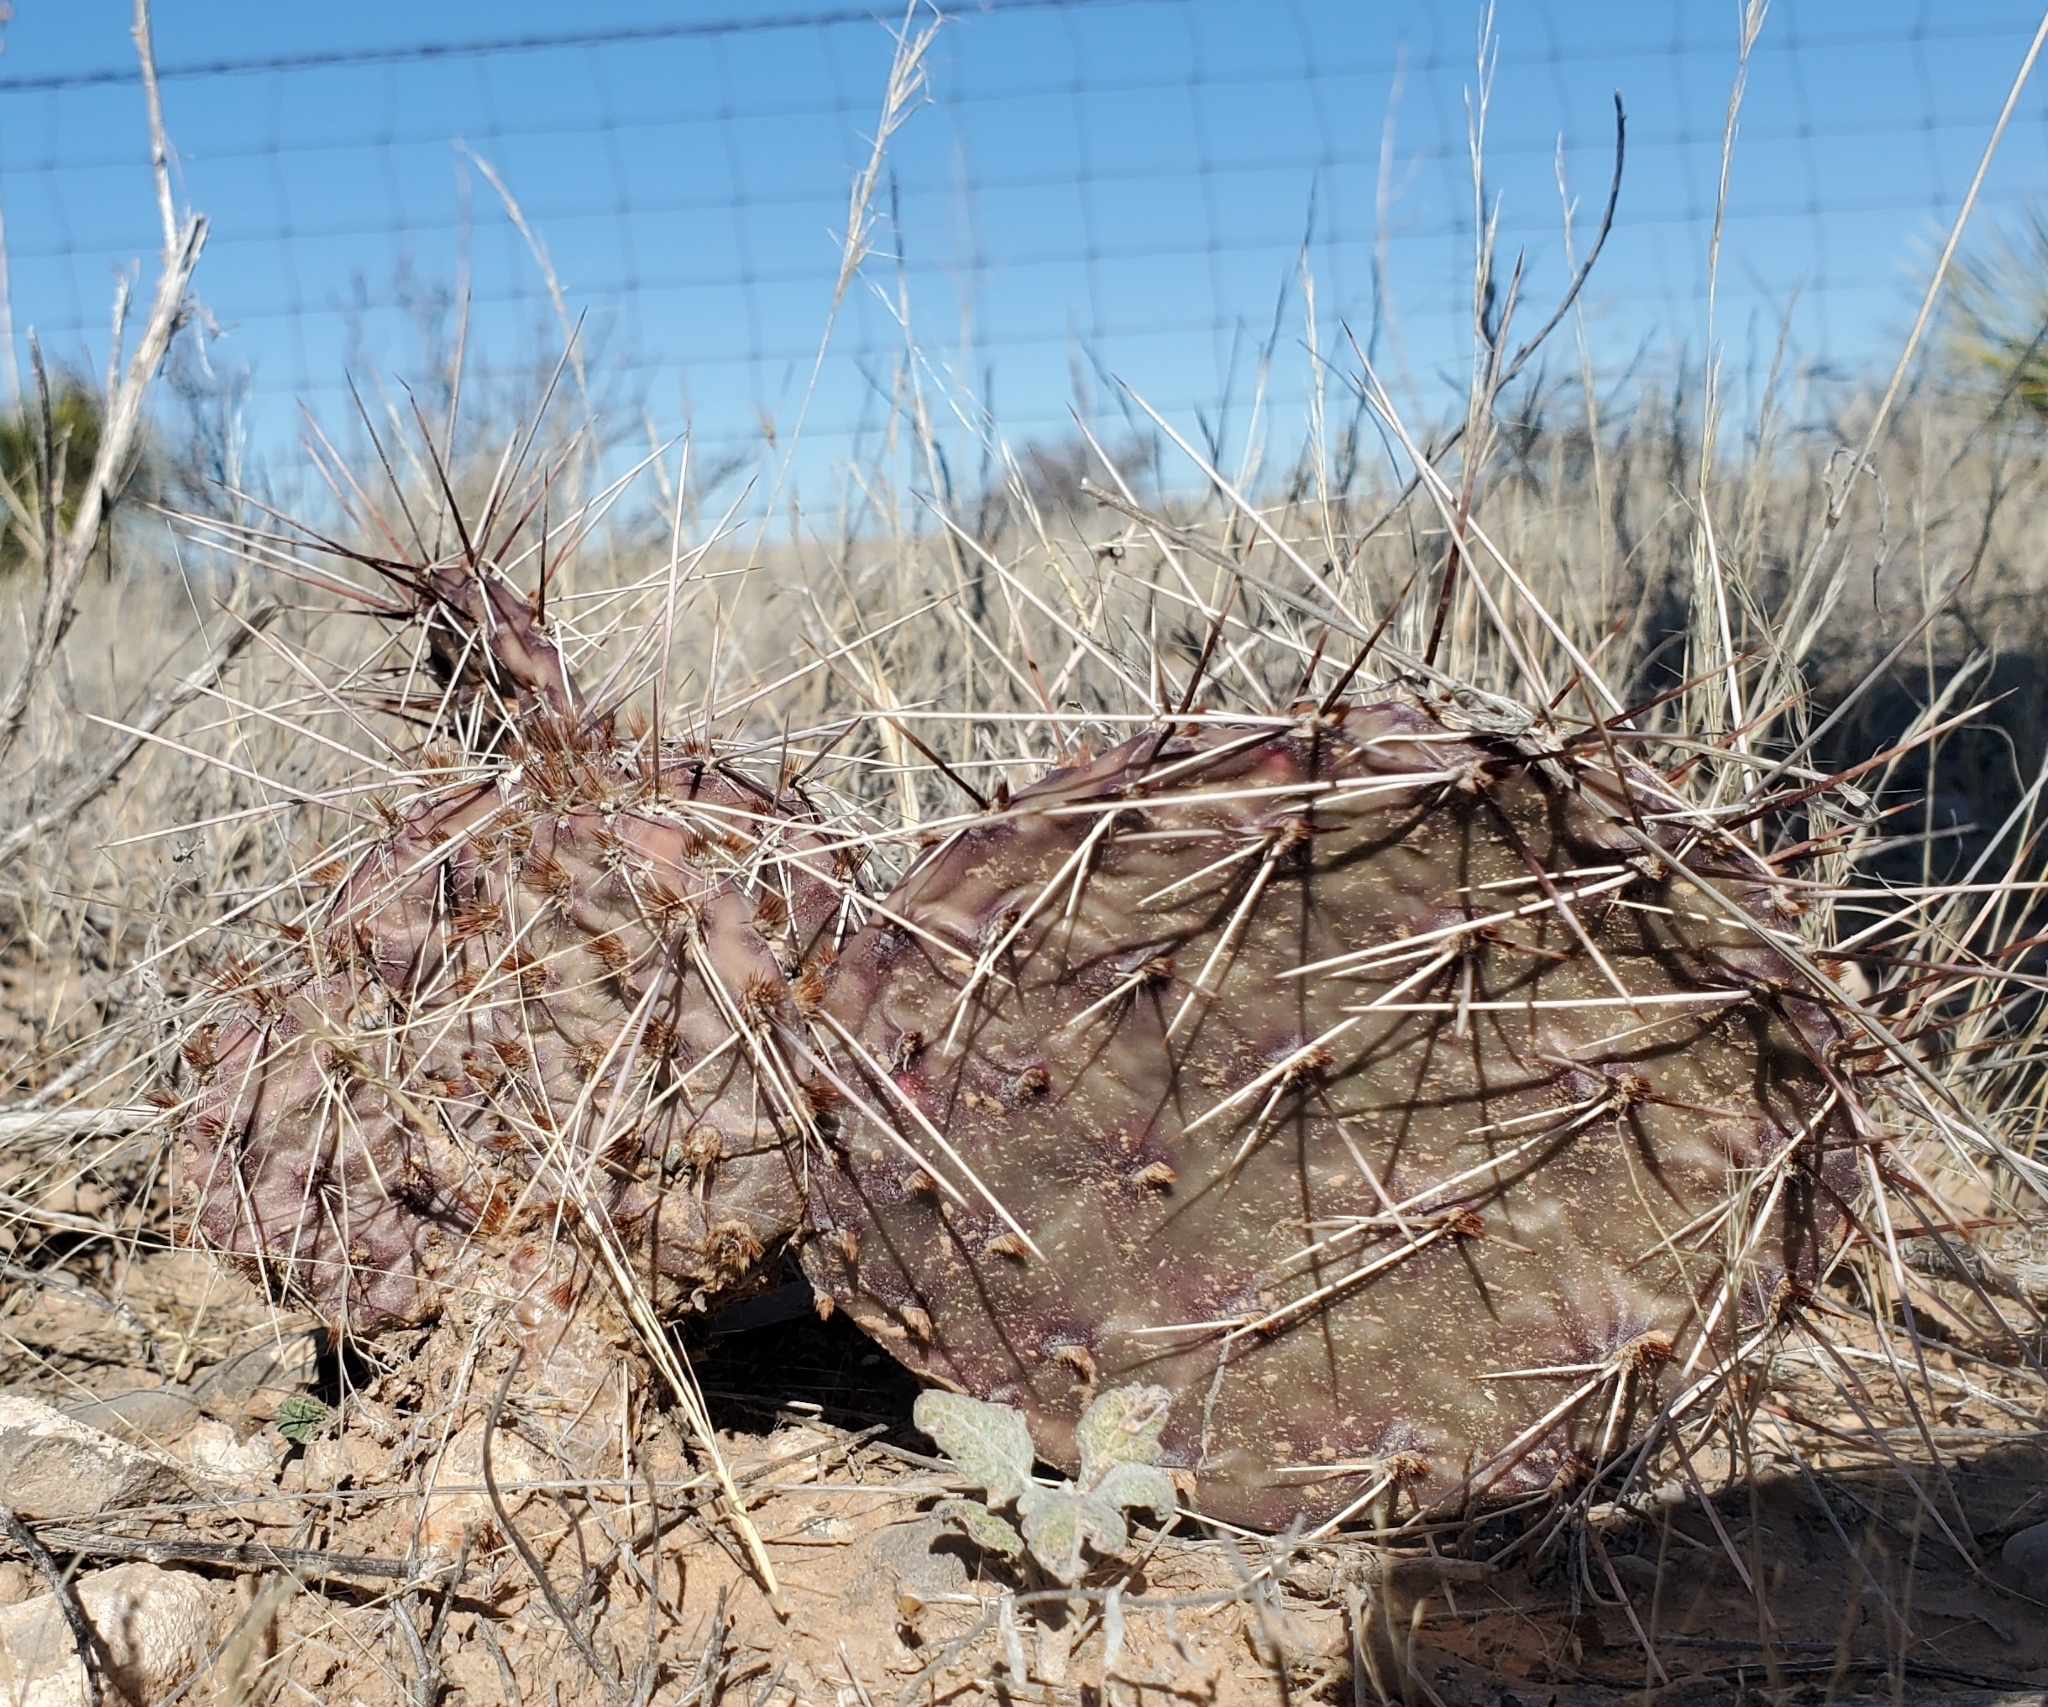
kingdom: Plantae
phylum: Tracheophyta
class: Magnoliopsida
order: Caryophyllales
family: Cactaceae
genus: Opuntia
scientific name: Opuntia macrorhiza
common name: Grassland pricklypear
